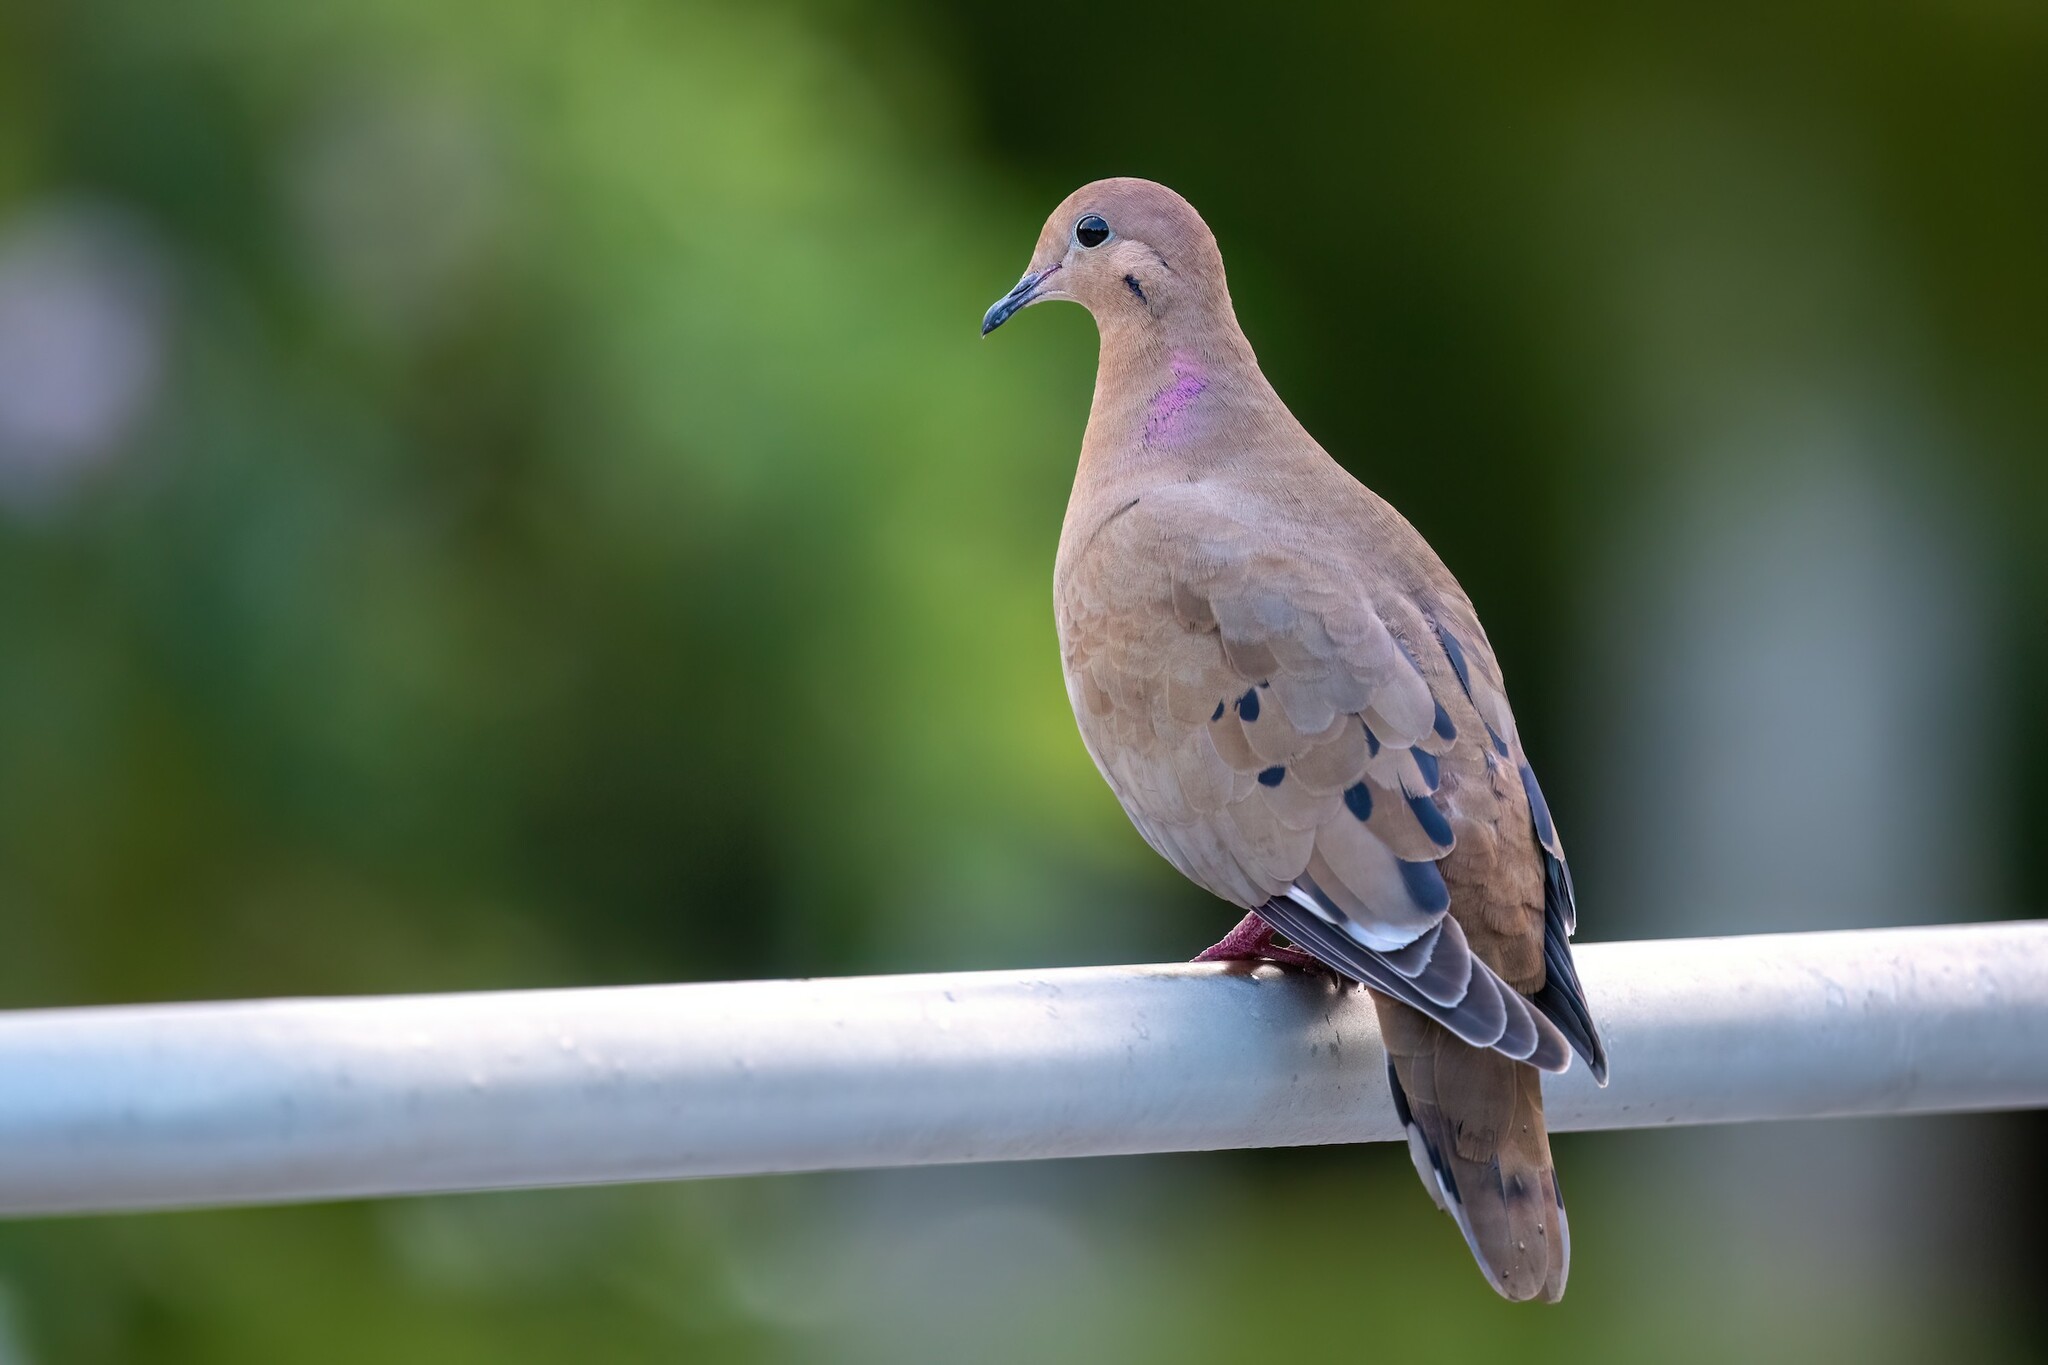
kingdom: Animalia
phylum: Chordata
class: Aves
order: Columbiformes
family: Columbidae
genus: Zenaida
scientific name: Zenaida aurita
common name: Zenaida dove
